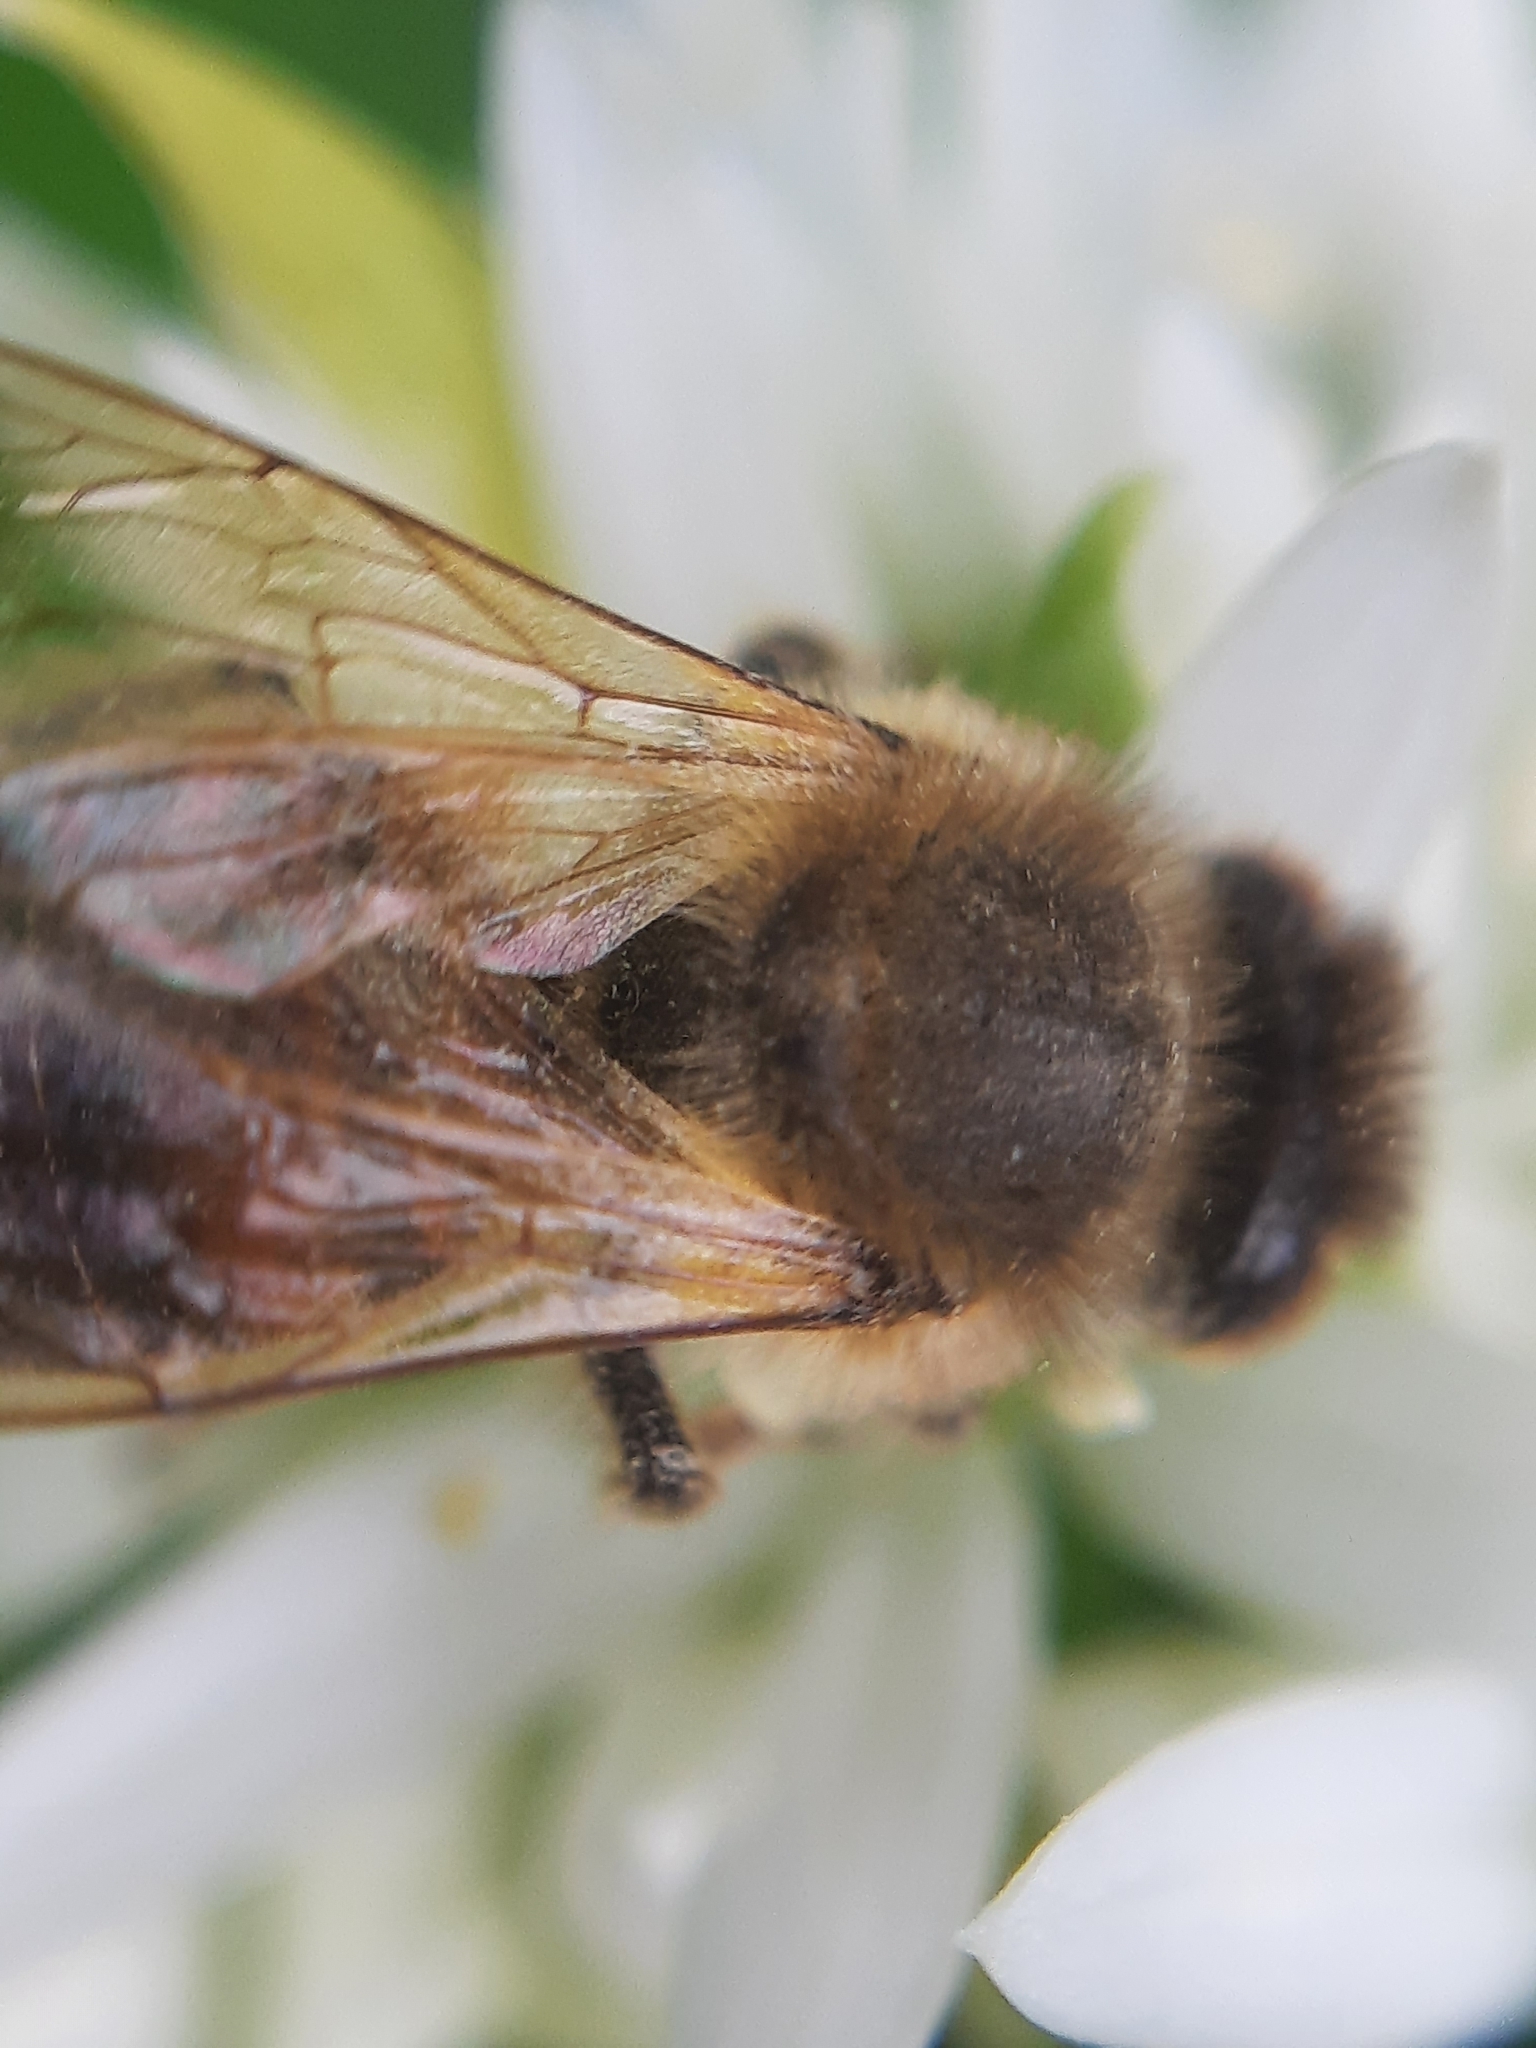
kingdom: Animalia
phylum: Arthropoda
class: Insecta
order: Hymenoptera
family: Apidae
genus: Apis
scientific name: Apis mellifera
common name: Honey bee
